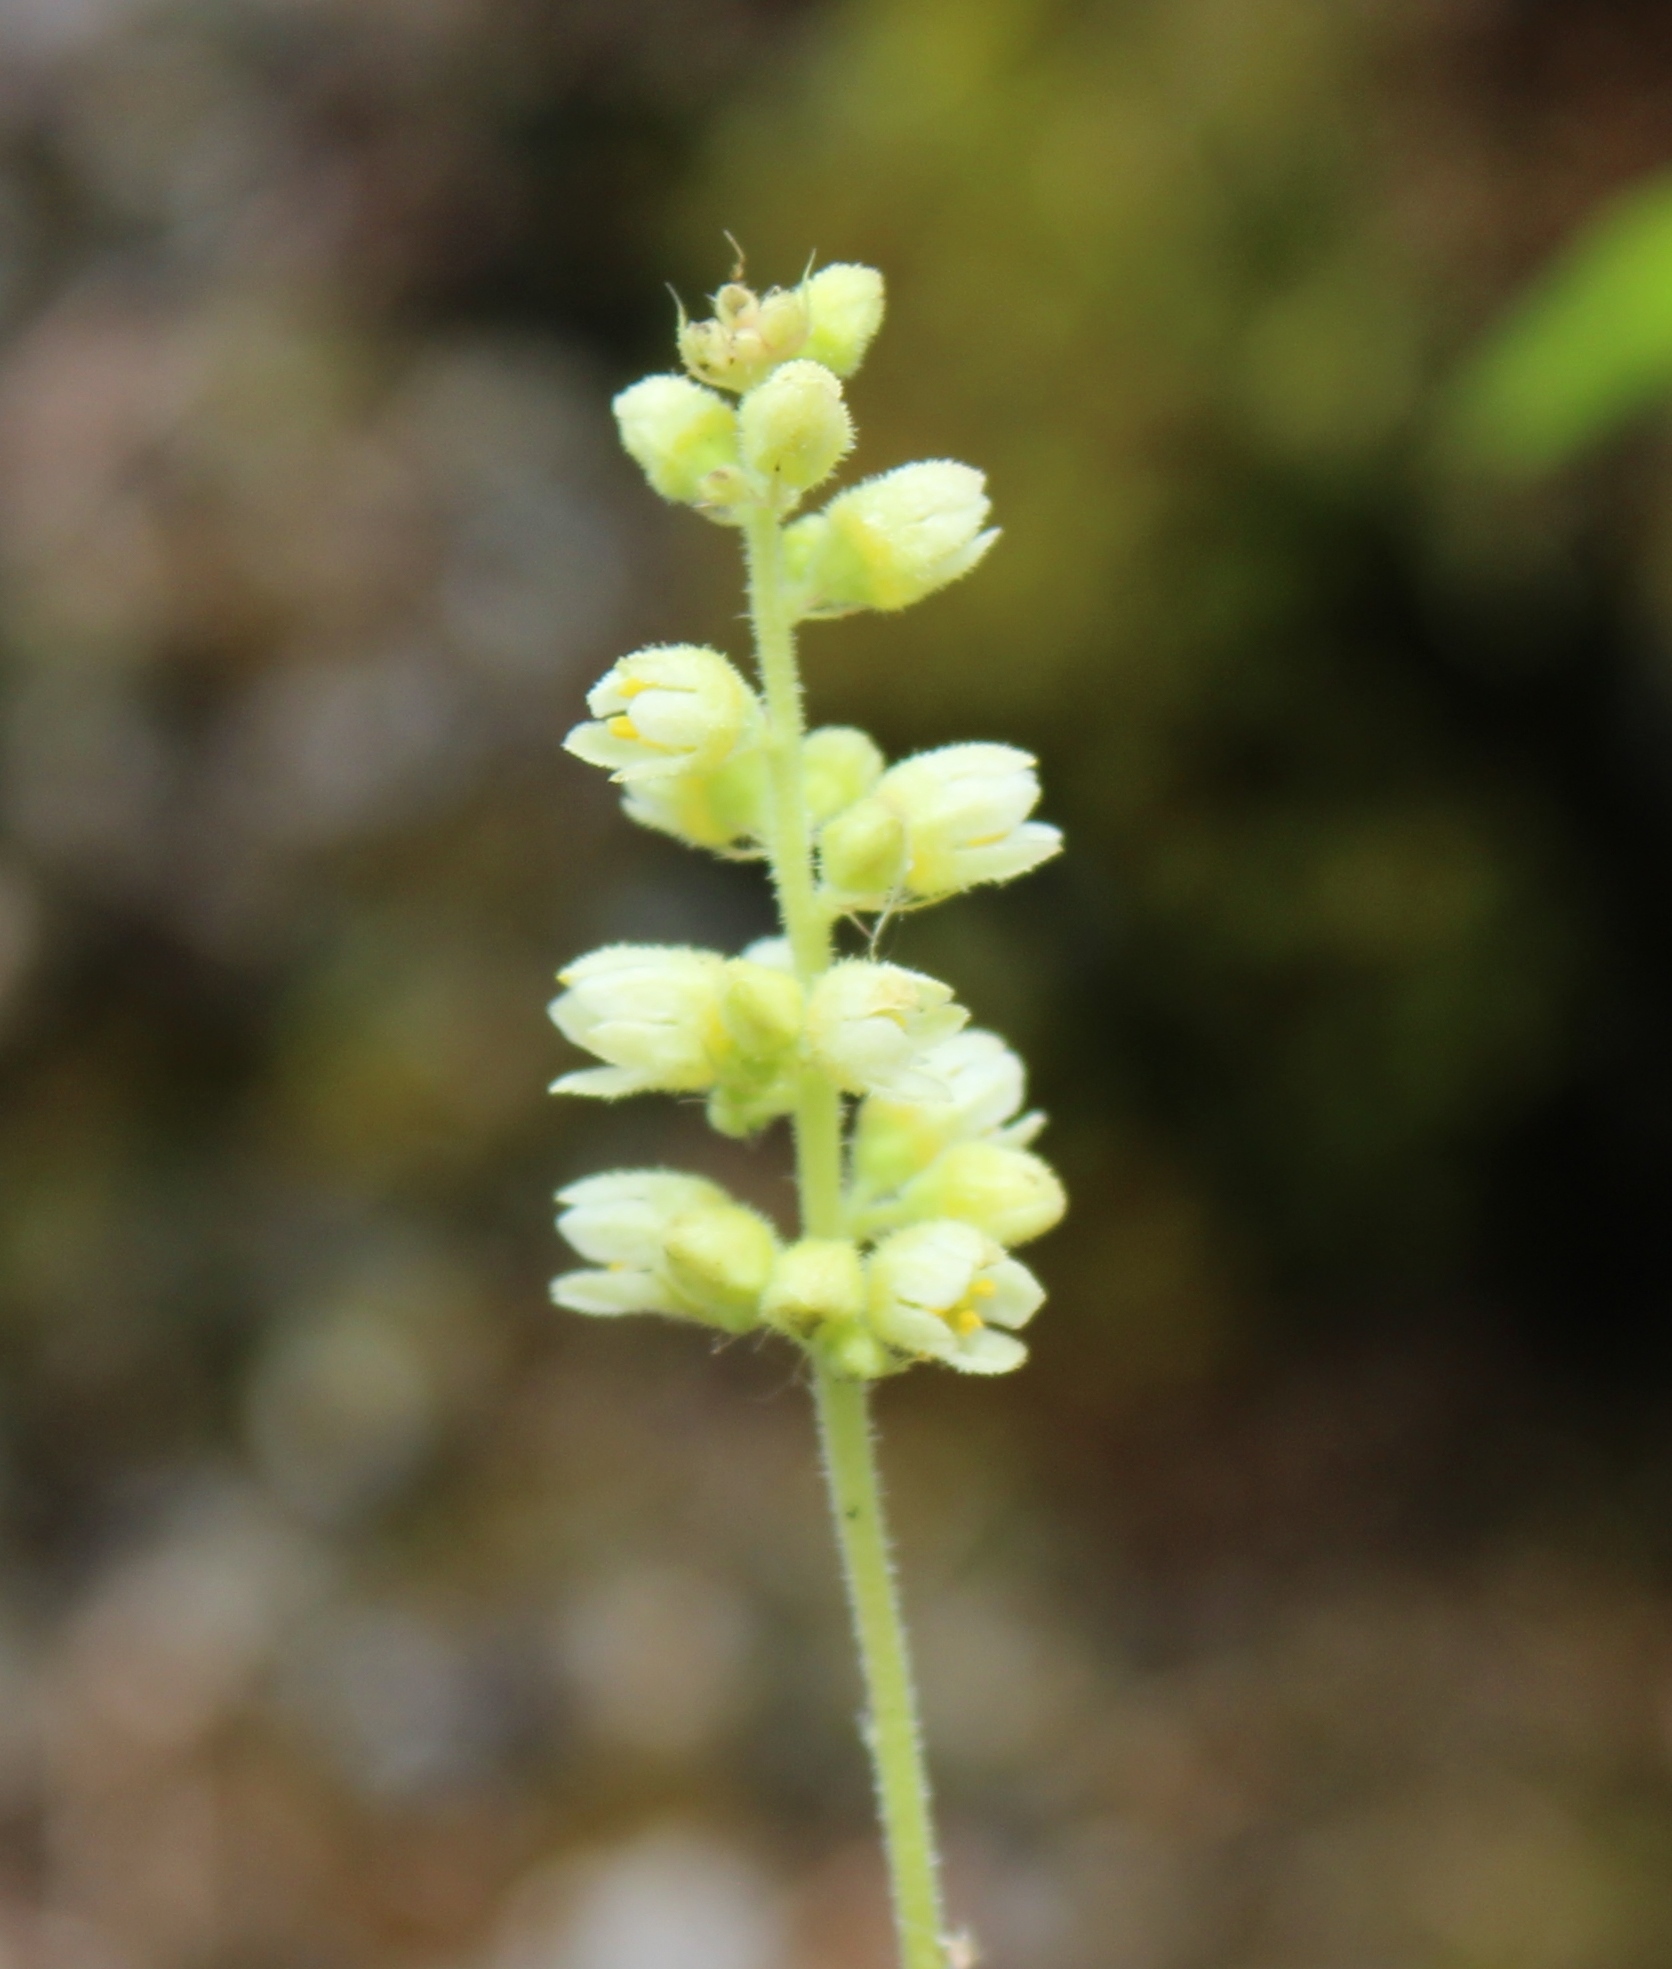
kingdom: Plantae
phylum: Tracheophyta
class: Magnoliopsida
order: Saxifragales
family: Saxifragaceae
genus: Heuchera
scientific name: Heuchera cylindrica
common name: Mat alumroot
